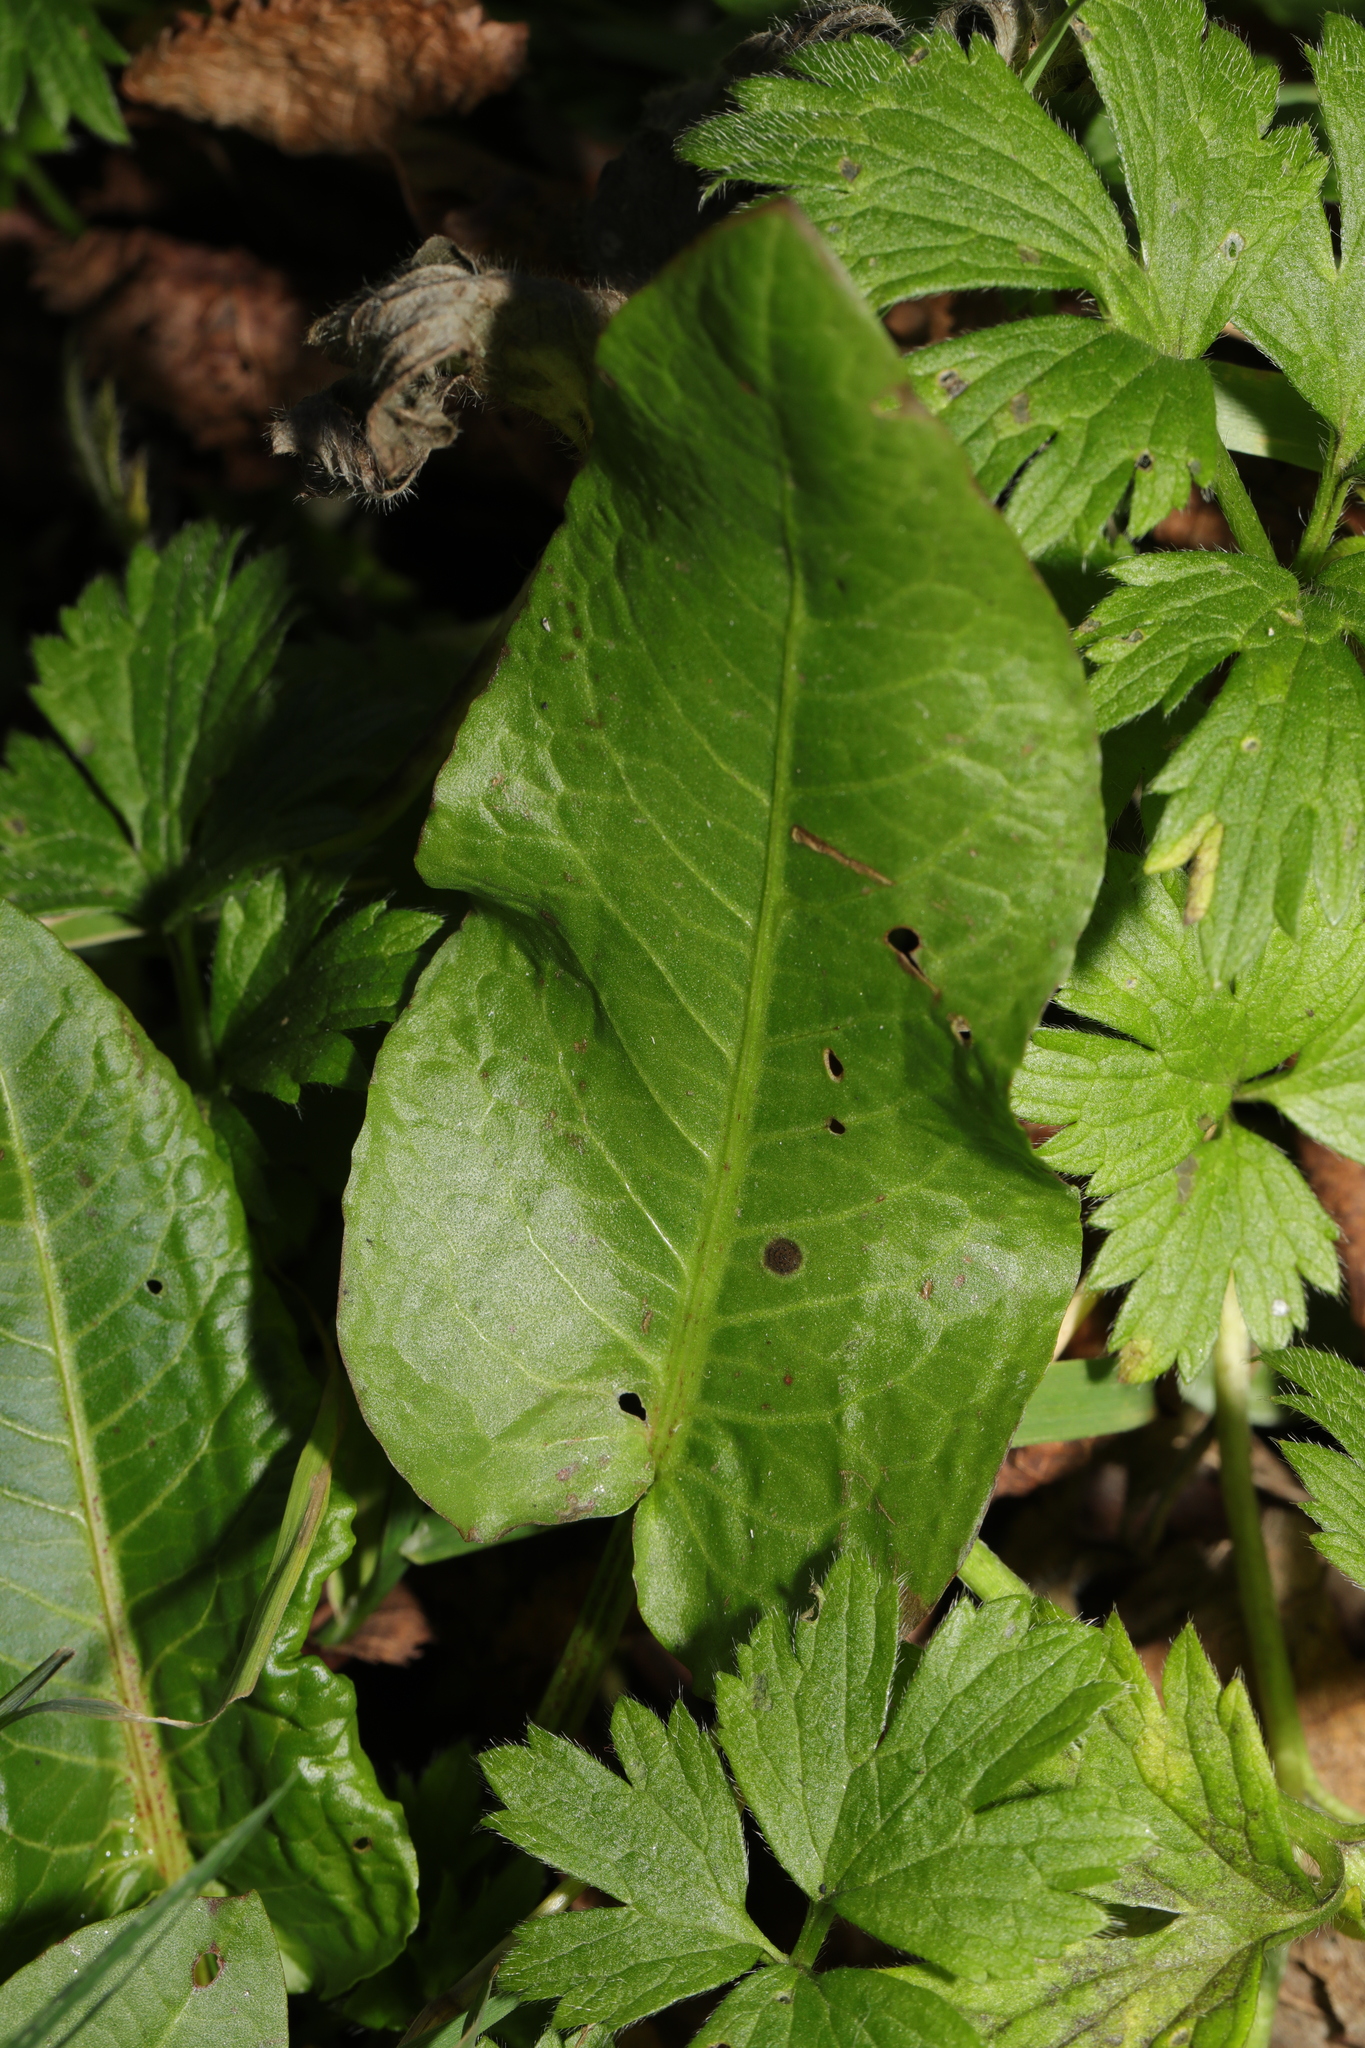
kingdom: Plantae
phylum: Tracheophyta
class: Magnoliopsida
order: Caryophyllales
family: Polygonaceae
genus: Rumex
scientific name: Rumex obtusifolius
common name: Bitter dock
